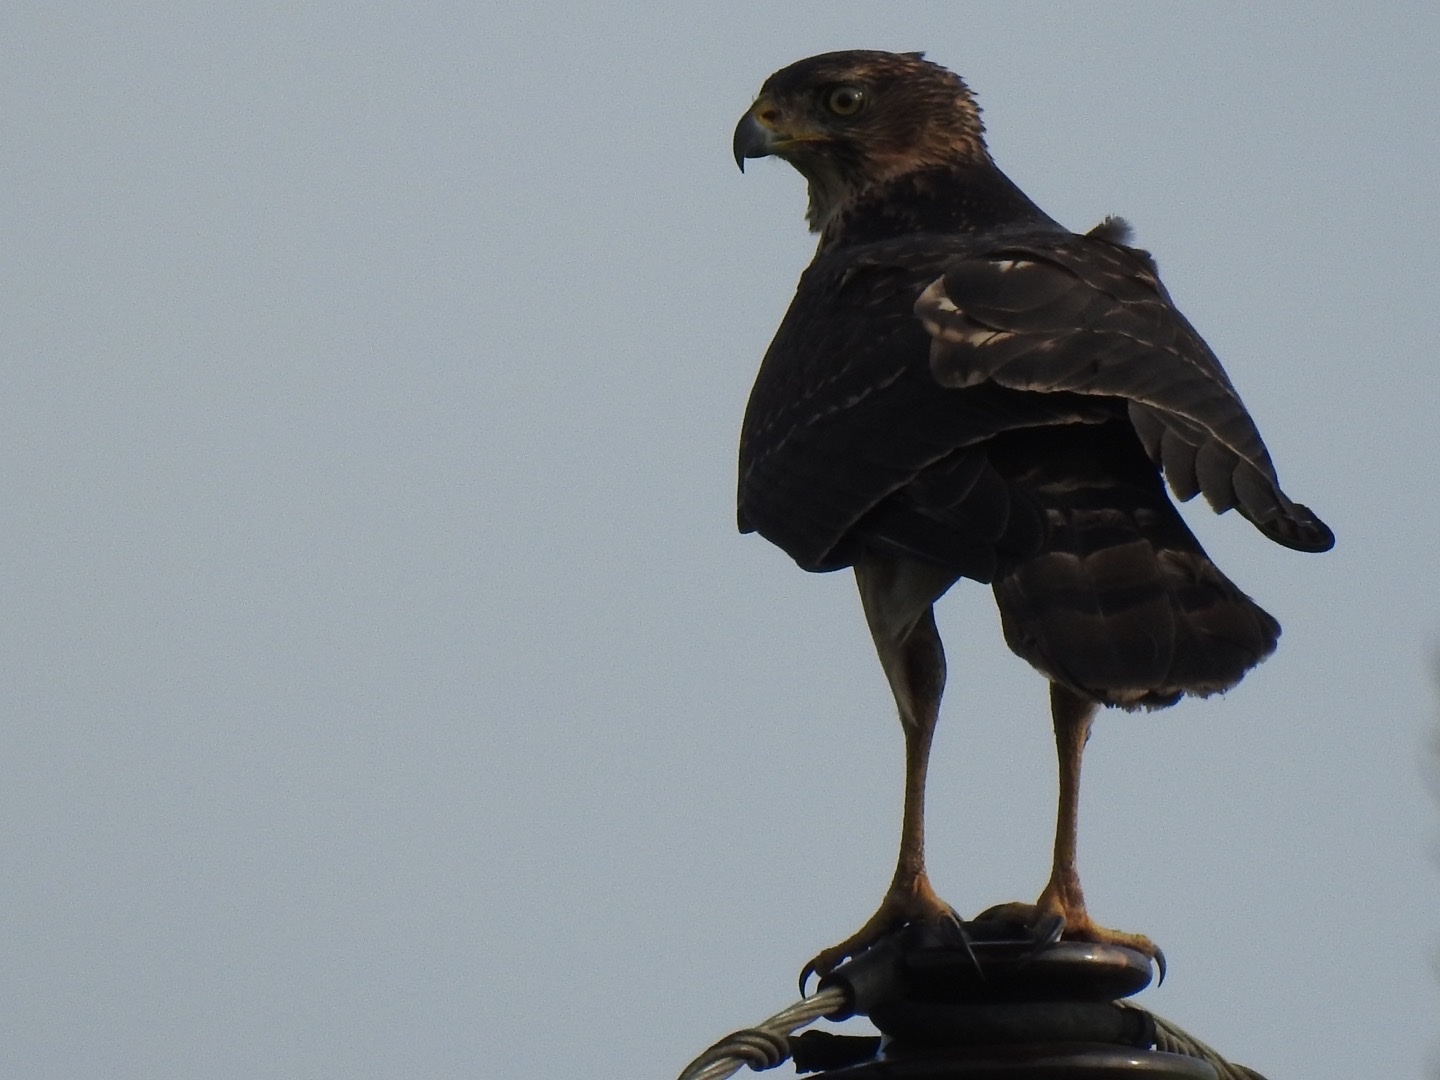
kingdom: Animalia
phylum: Chordata
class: Aves
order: Accipitriformes
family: Accipitridae
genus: Accipiter
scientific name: Accipiter melanoleucus
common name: Black sparrowhawk
